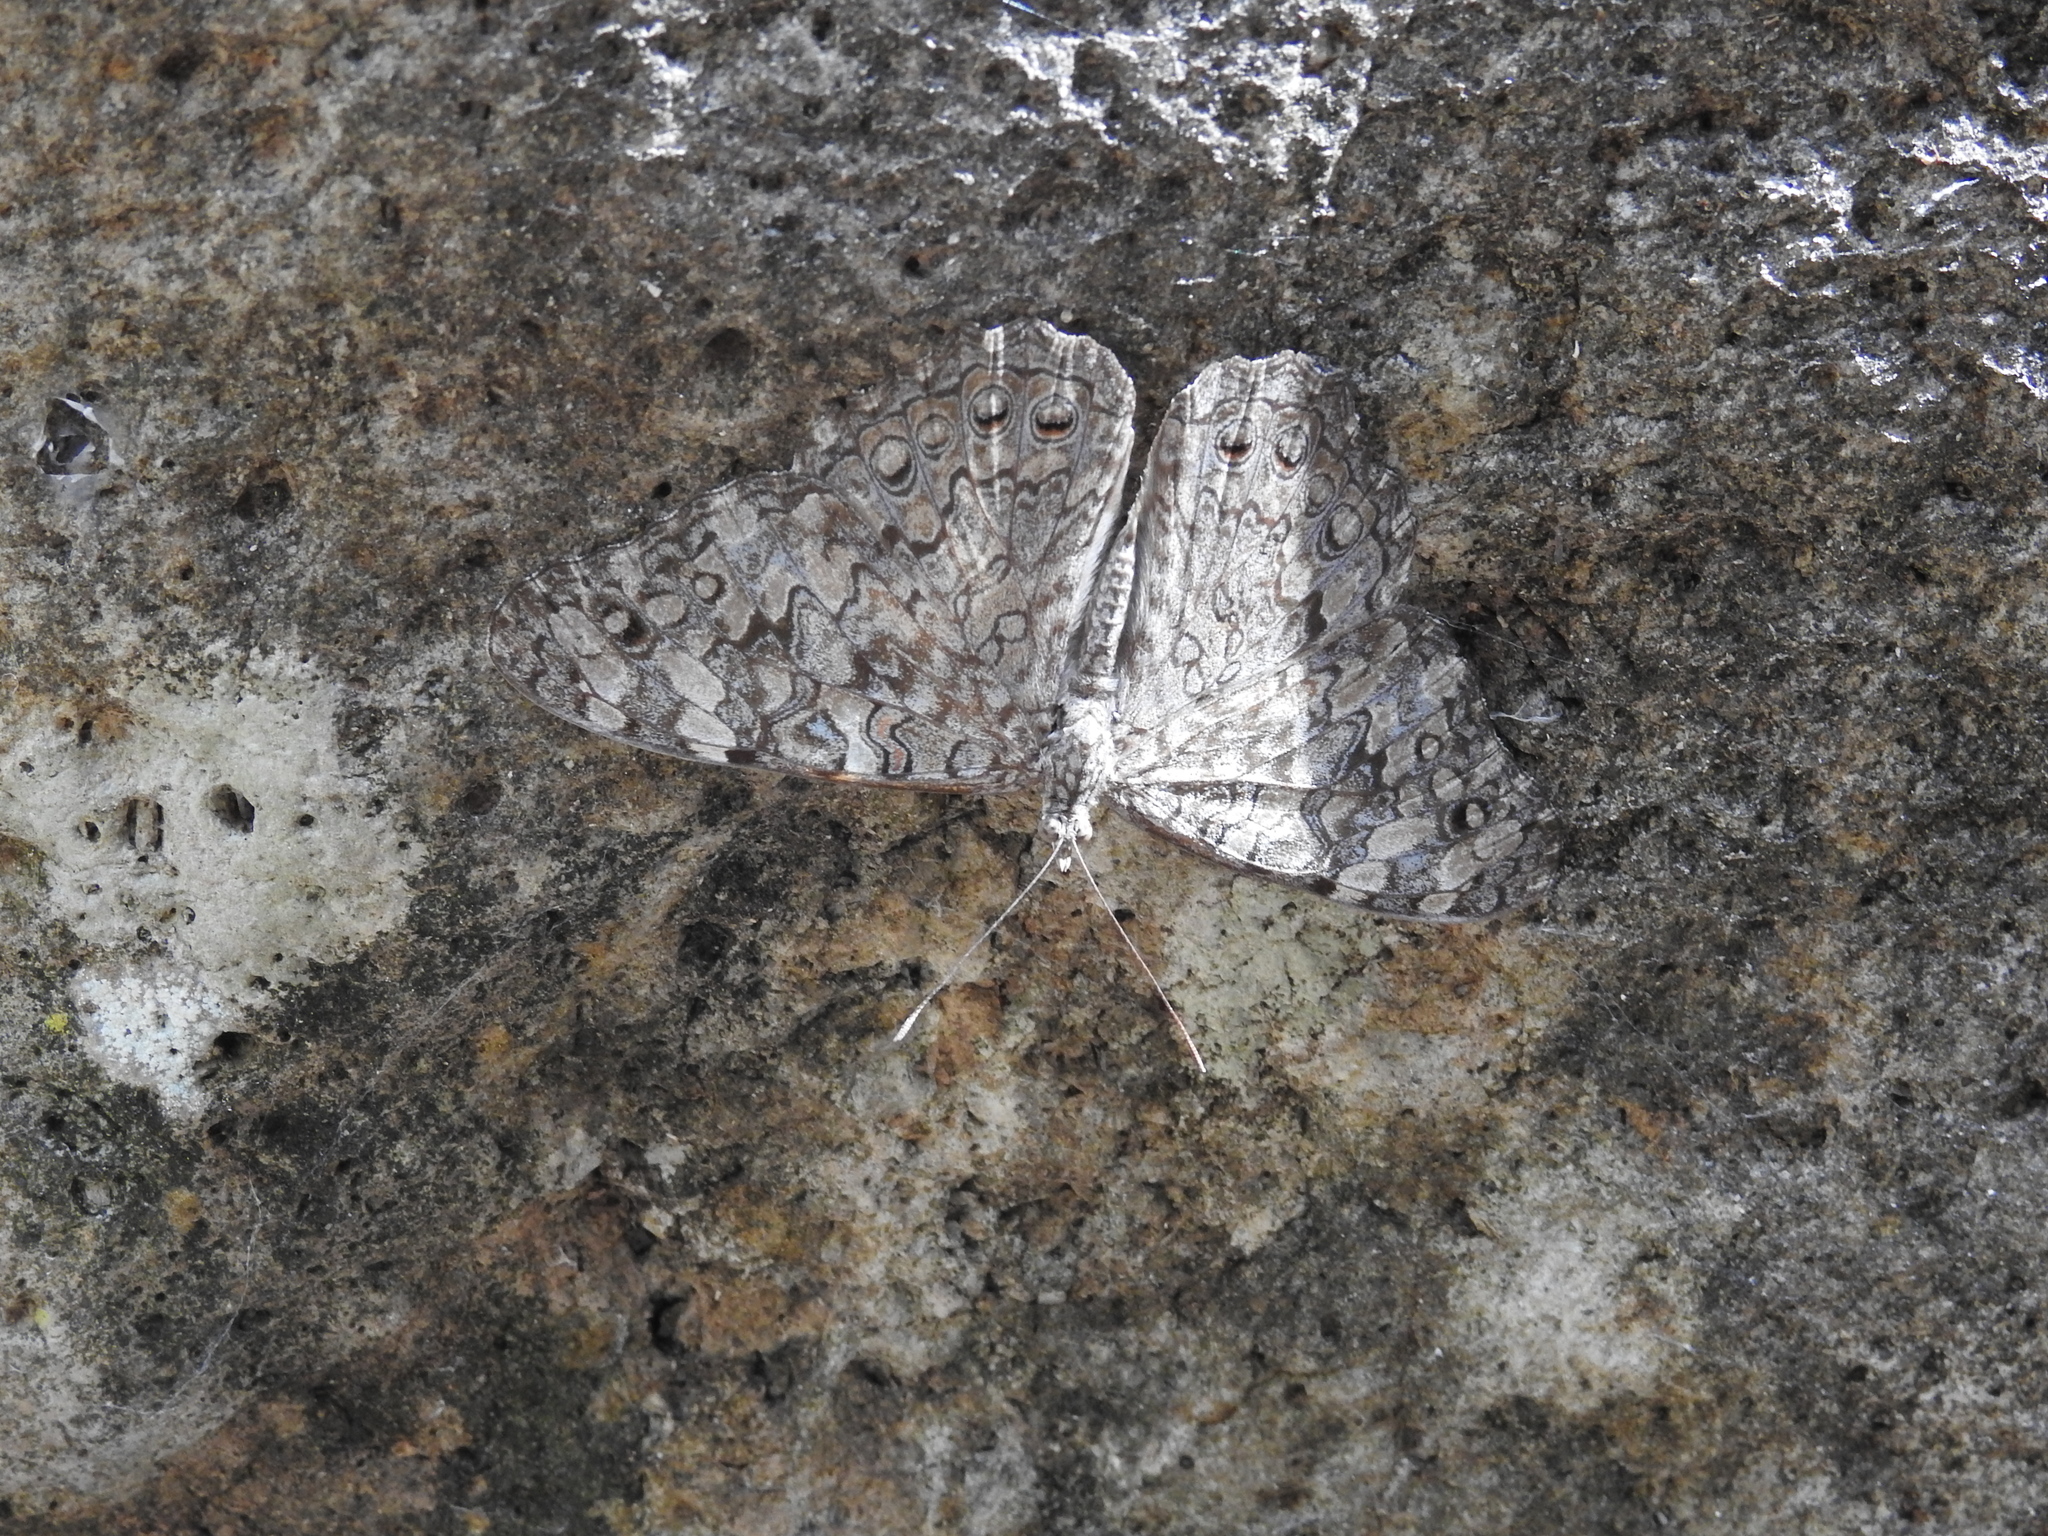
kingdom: Animalia
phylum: Arthropoda
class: Insecta
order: Lepidoptera
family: Nymphalidae
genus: Hamadryas
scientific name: Hamadryas februa
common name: Gray cracker
